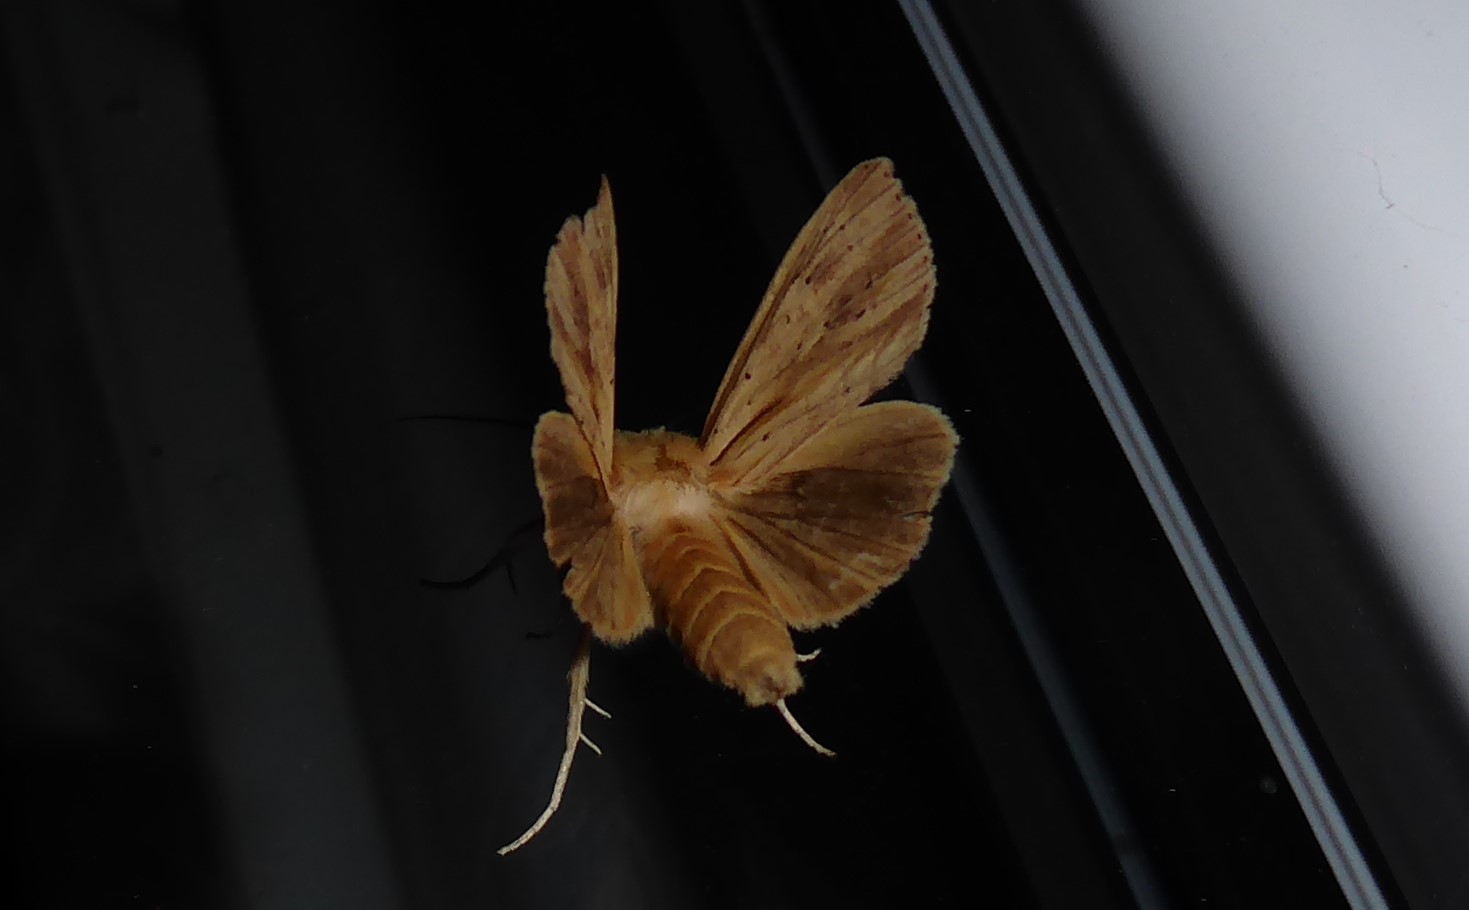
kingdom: Animalia
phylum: Arthropoda
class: Insecta
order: Lepidoptera
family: Noctuidae
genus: Ichneutica
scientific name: Ichneutica semivittata
